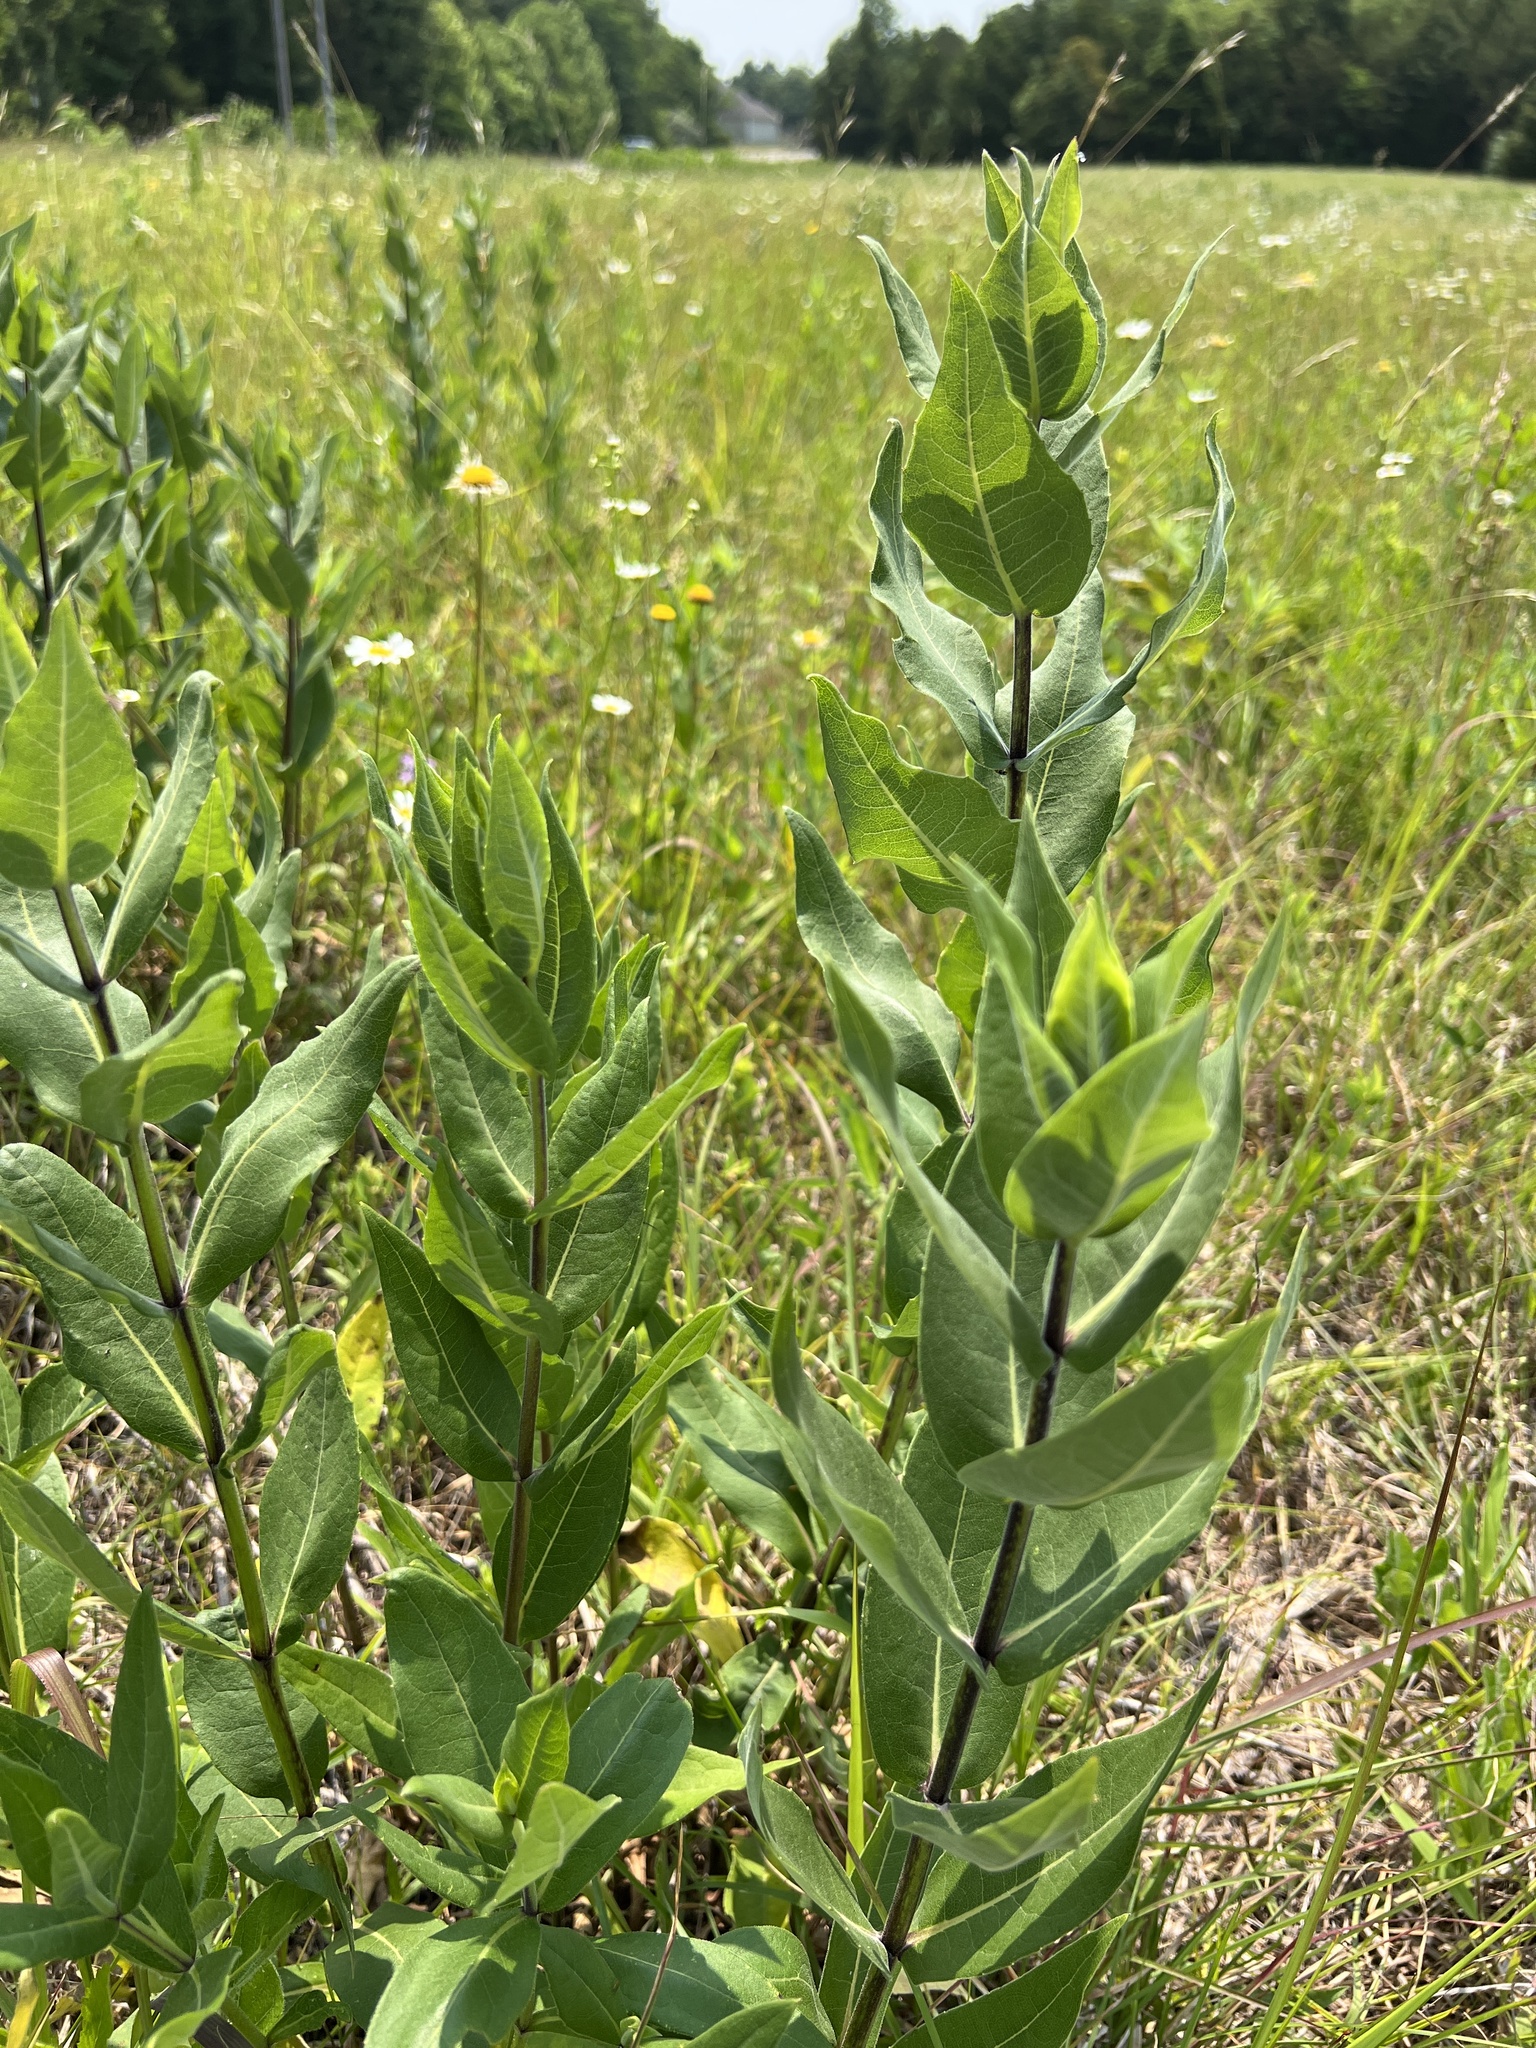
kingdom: Plantae
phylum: Tracheophyta
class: Magnoliopsida
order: Asterales
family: Asteraceae
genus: Silphium
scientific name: Silphium integrifolium
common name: Whole-leaf rosinweed
